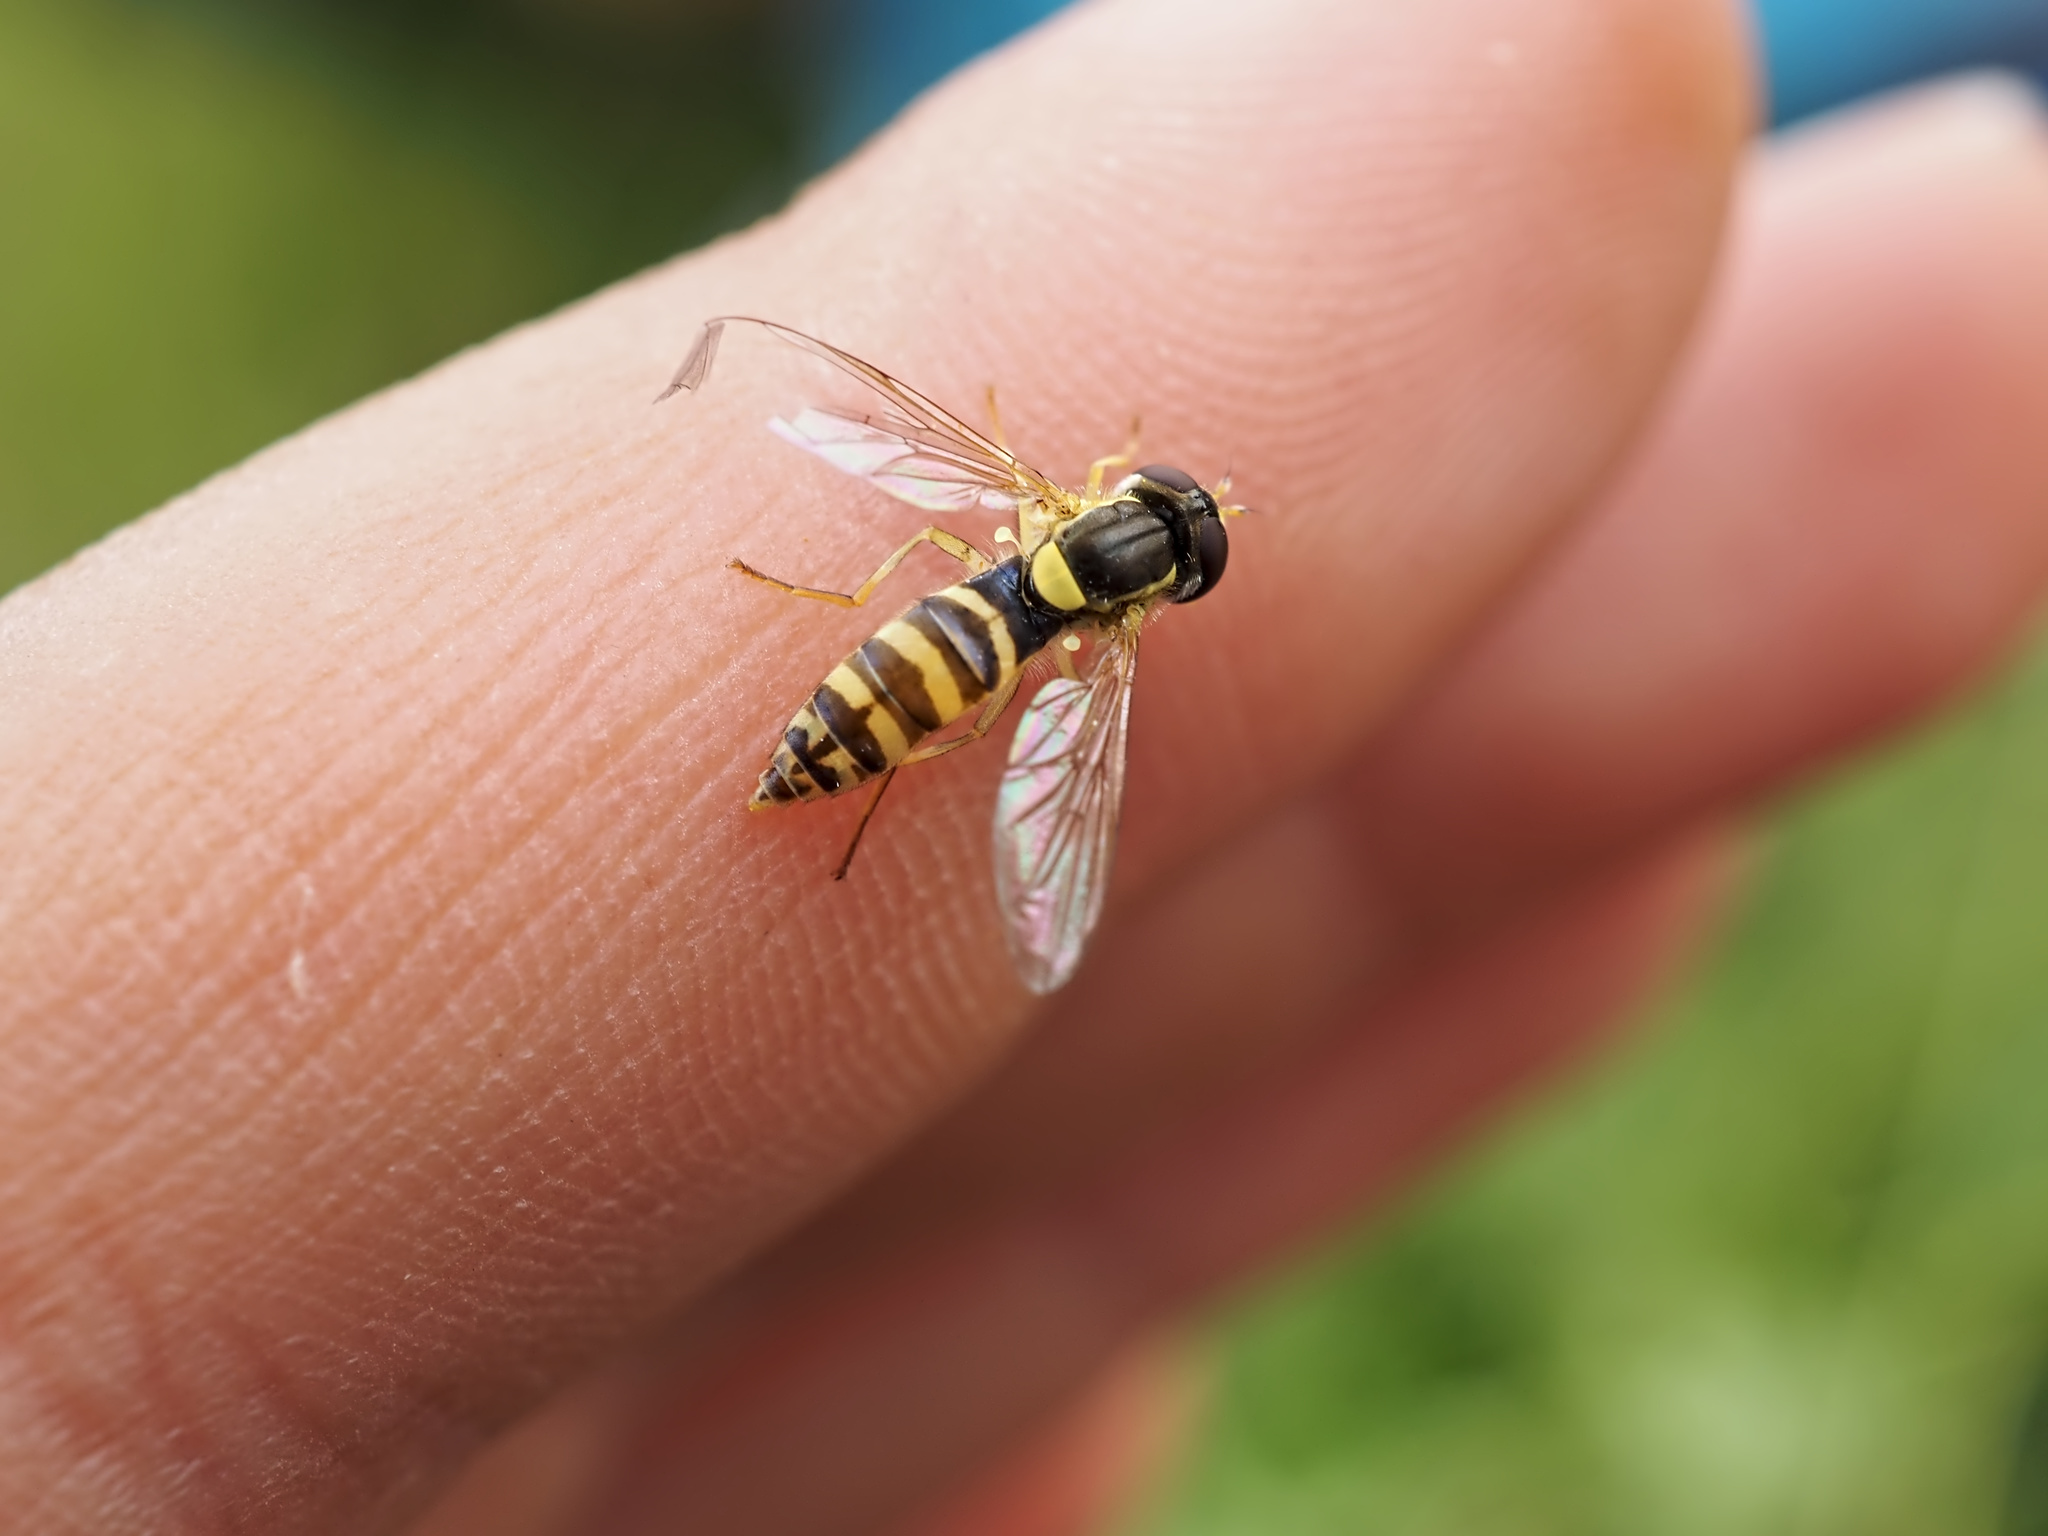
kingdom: Animalia
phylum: Arthropoda
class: Insecta
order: Diptera
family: Syrphidae
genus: Sphaerophoria
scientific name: Sphaerophoria
